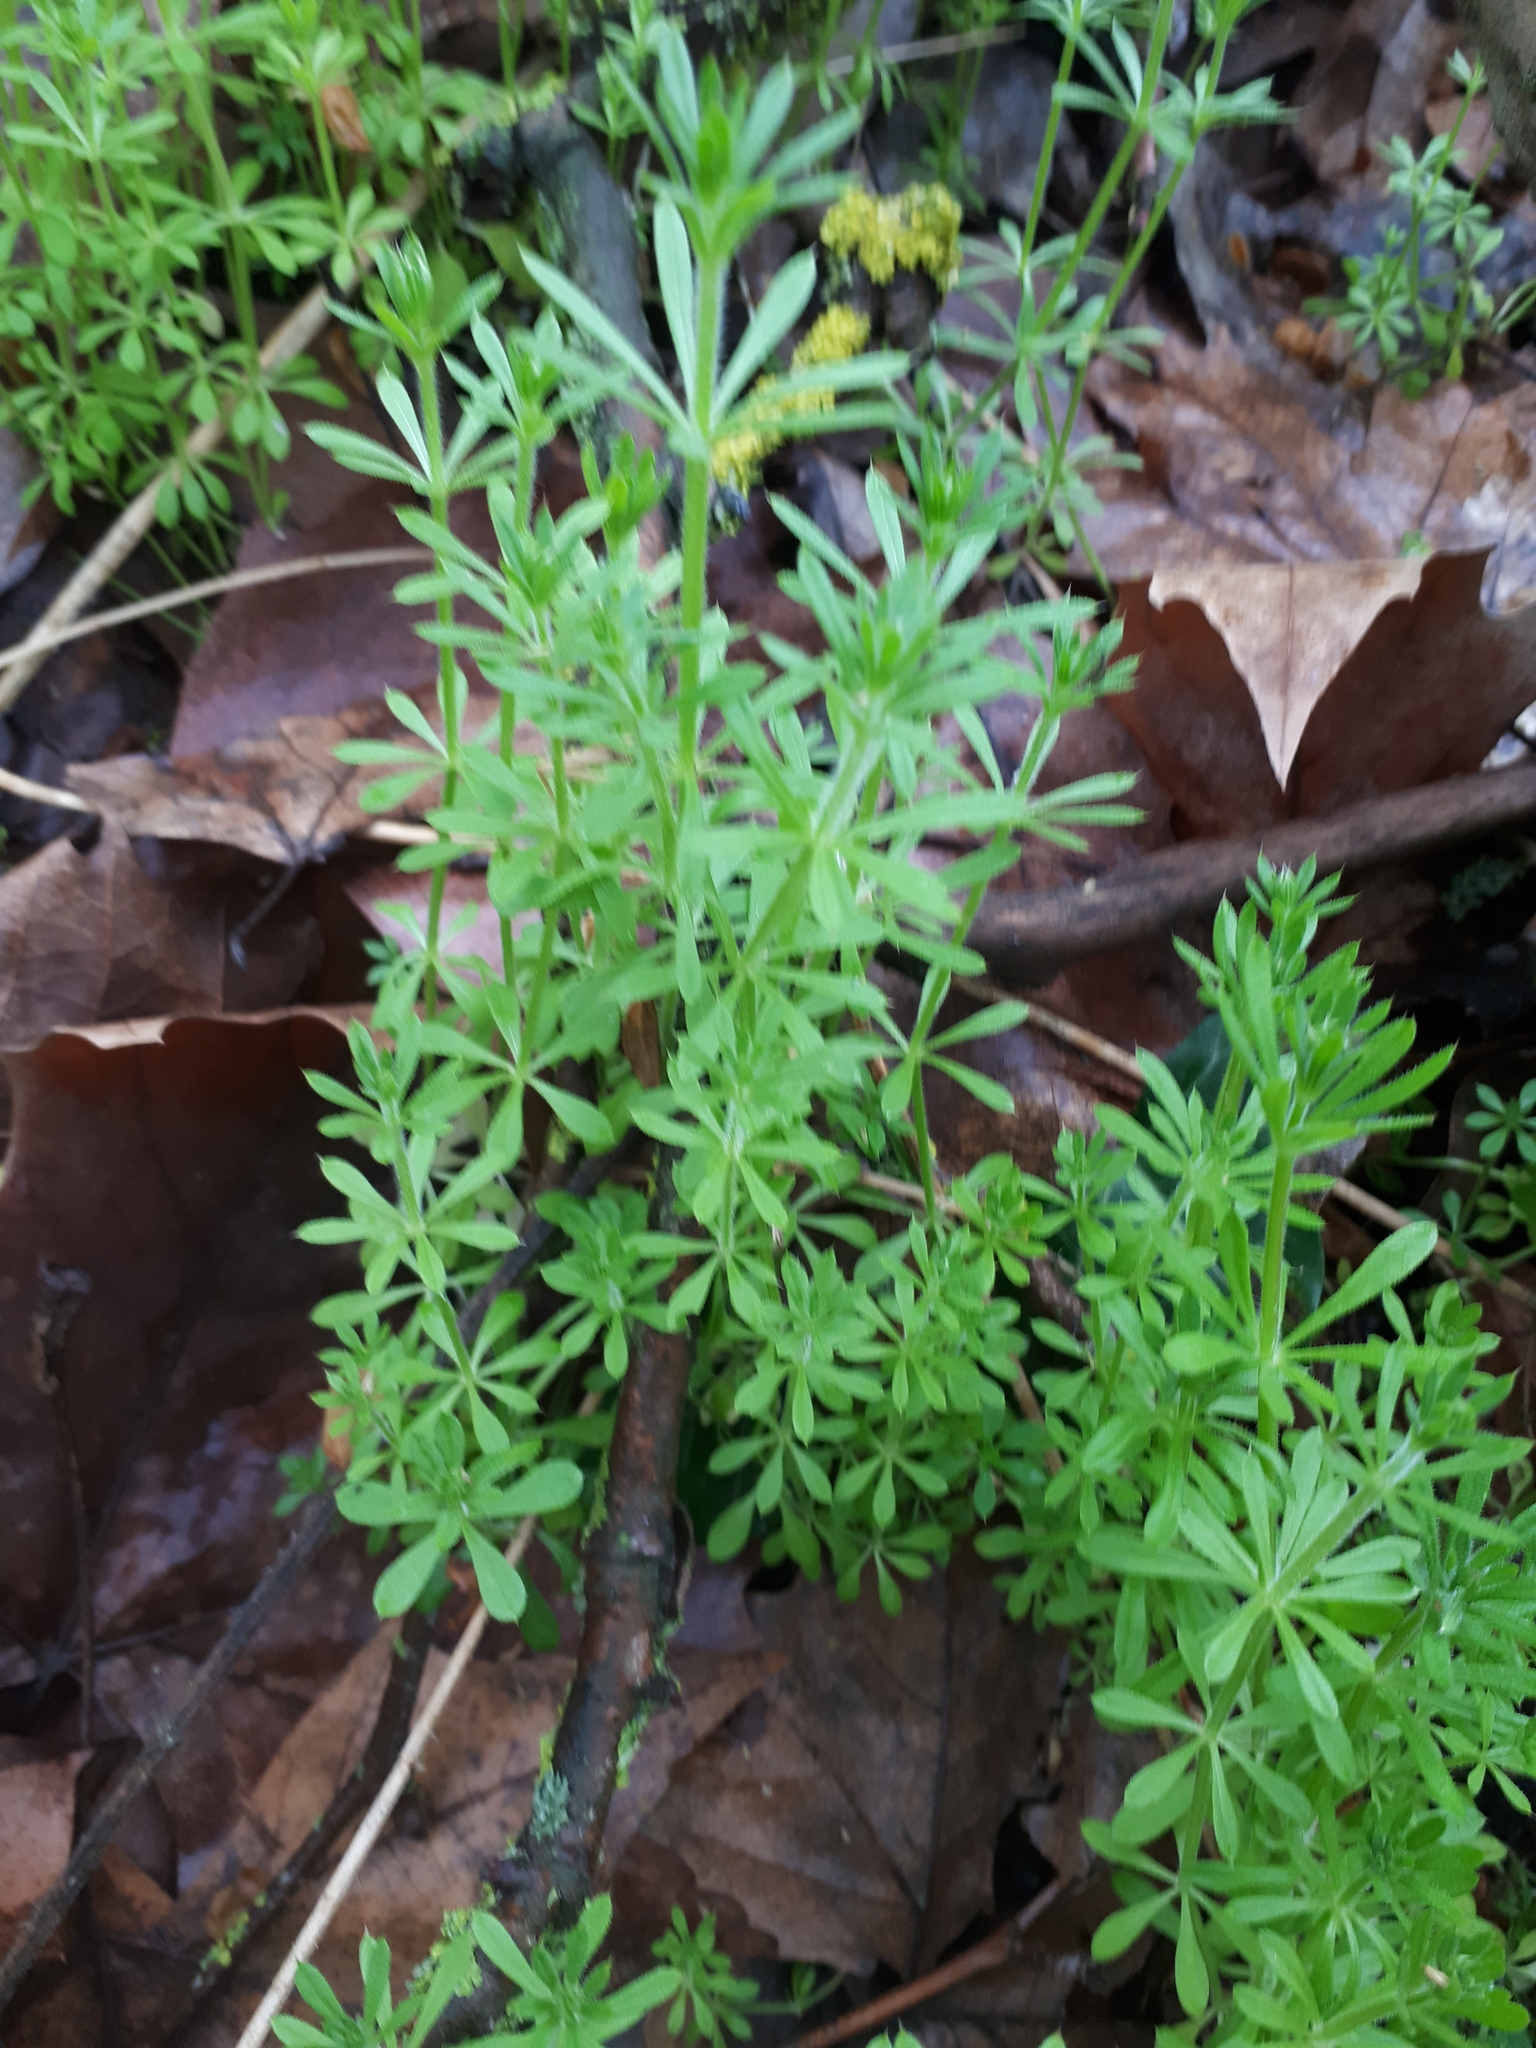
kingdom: Plantae
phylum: Tracheophyta
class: Magnoliopsida
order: Gentianales
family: Rubiaceae
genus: Galium
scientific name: Galium aparine
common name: Cleavers
